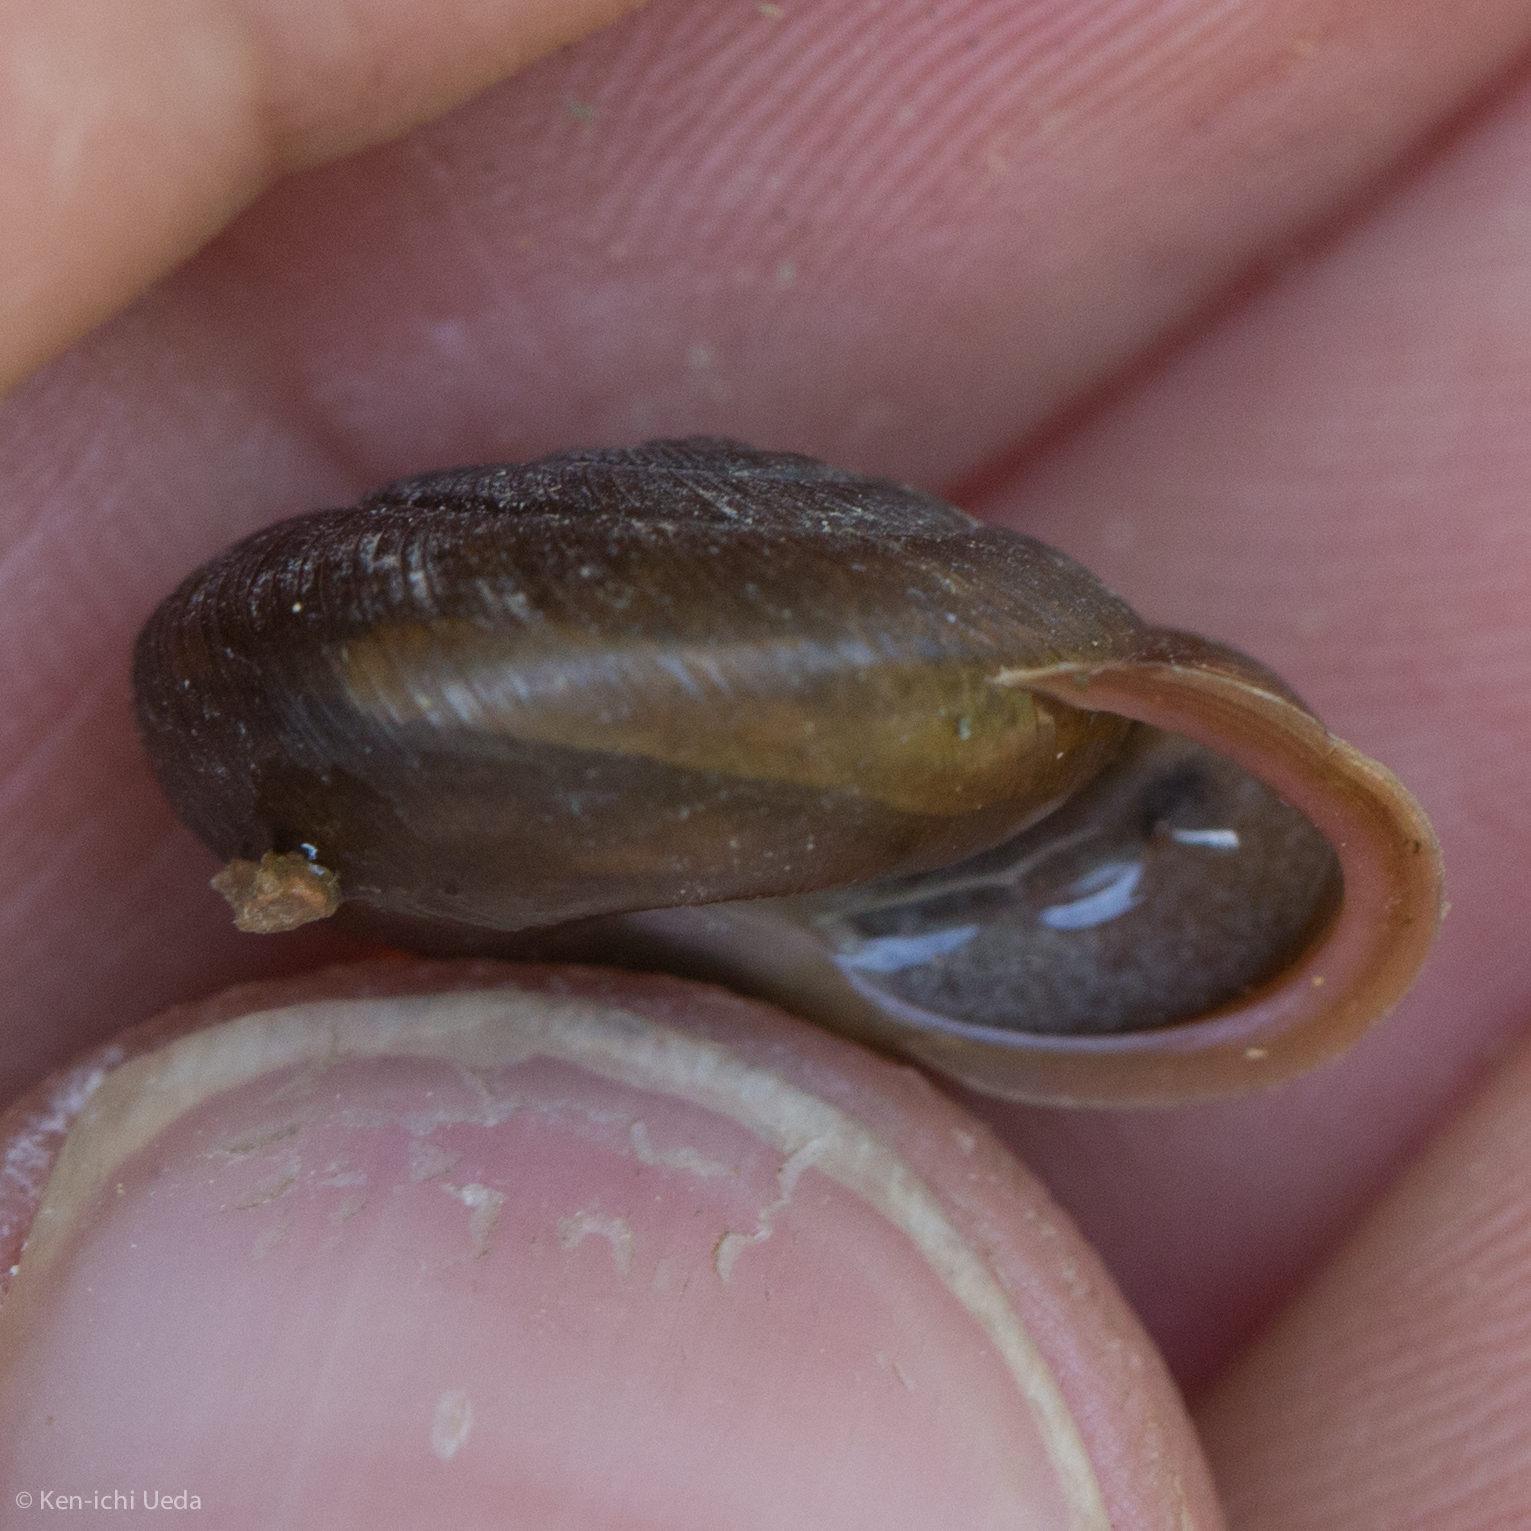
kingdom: Animalia
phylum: Mollusca
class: Gastropoda
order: Stylommatophora
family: Polygyridae
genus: Patera
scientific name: Patera perigrapta
